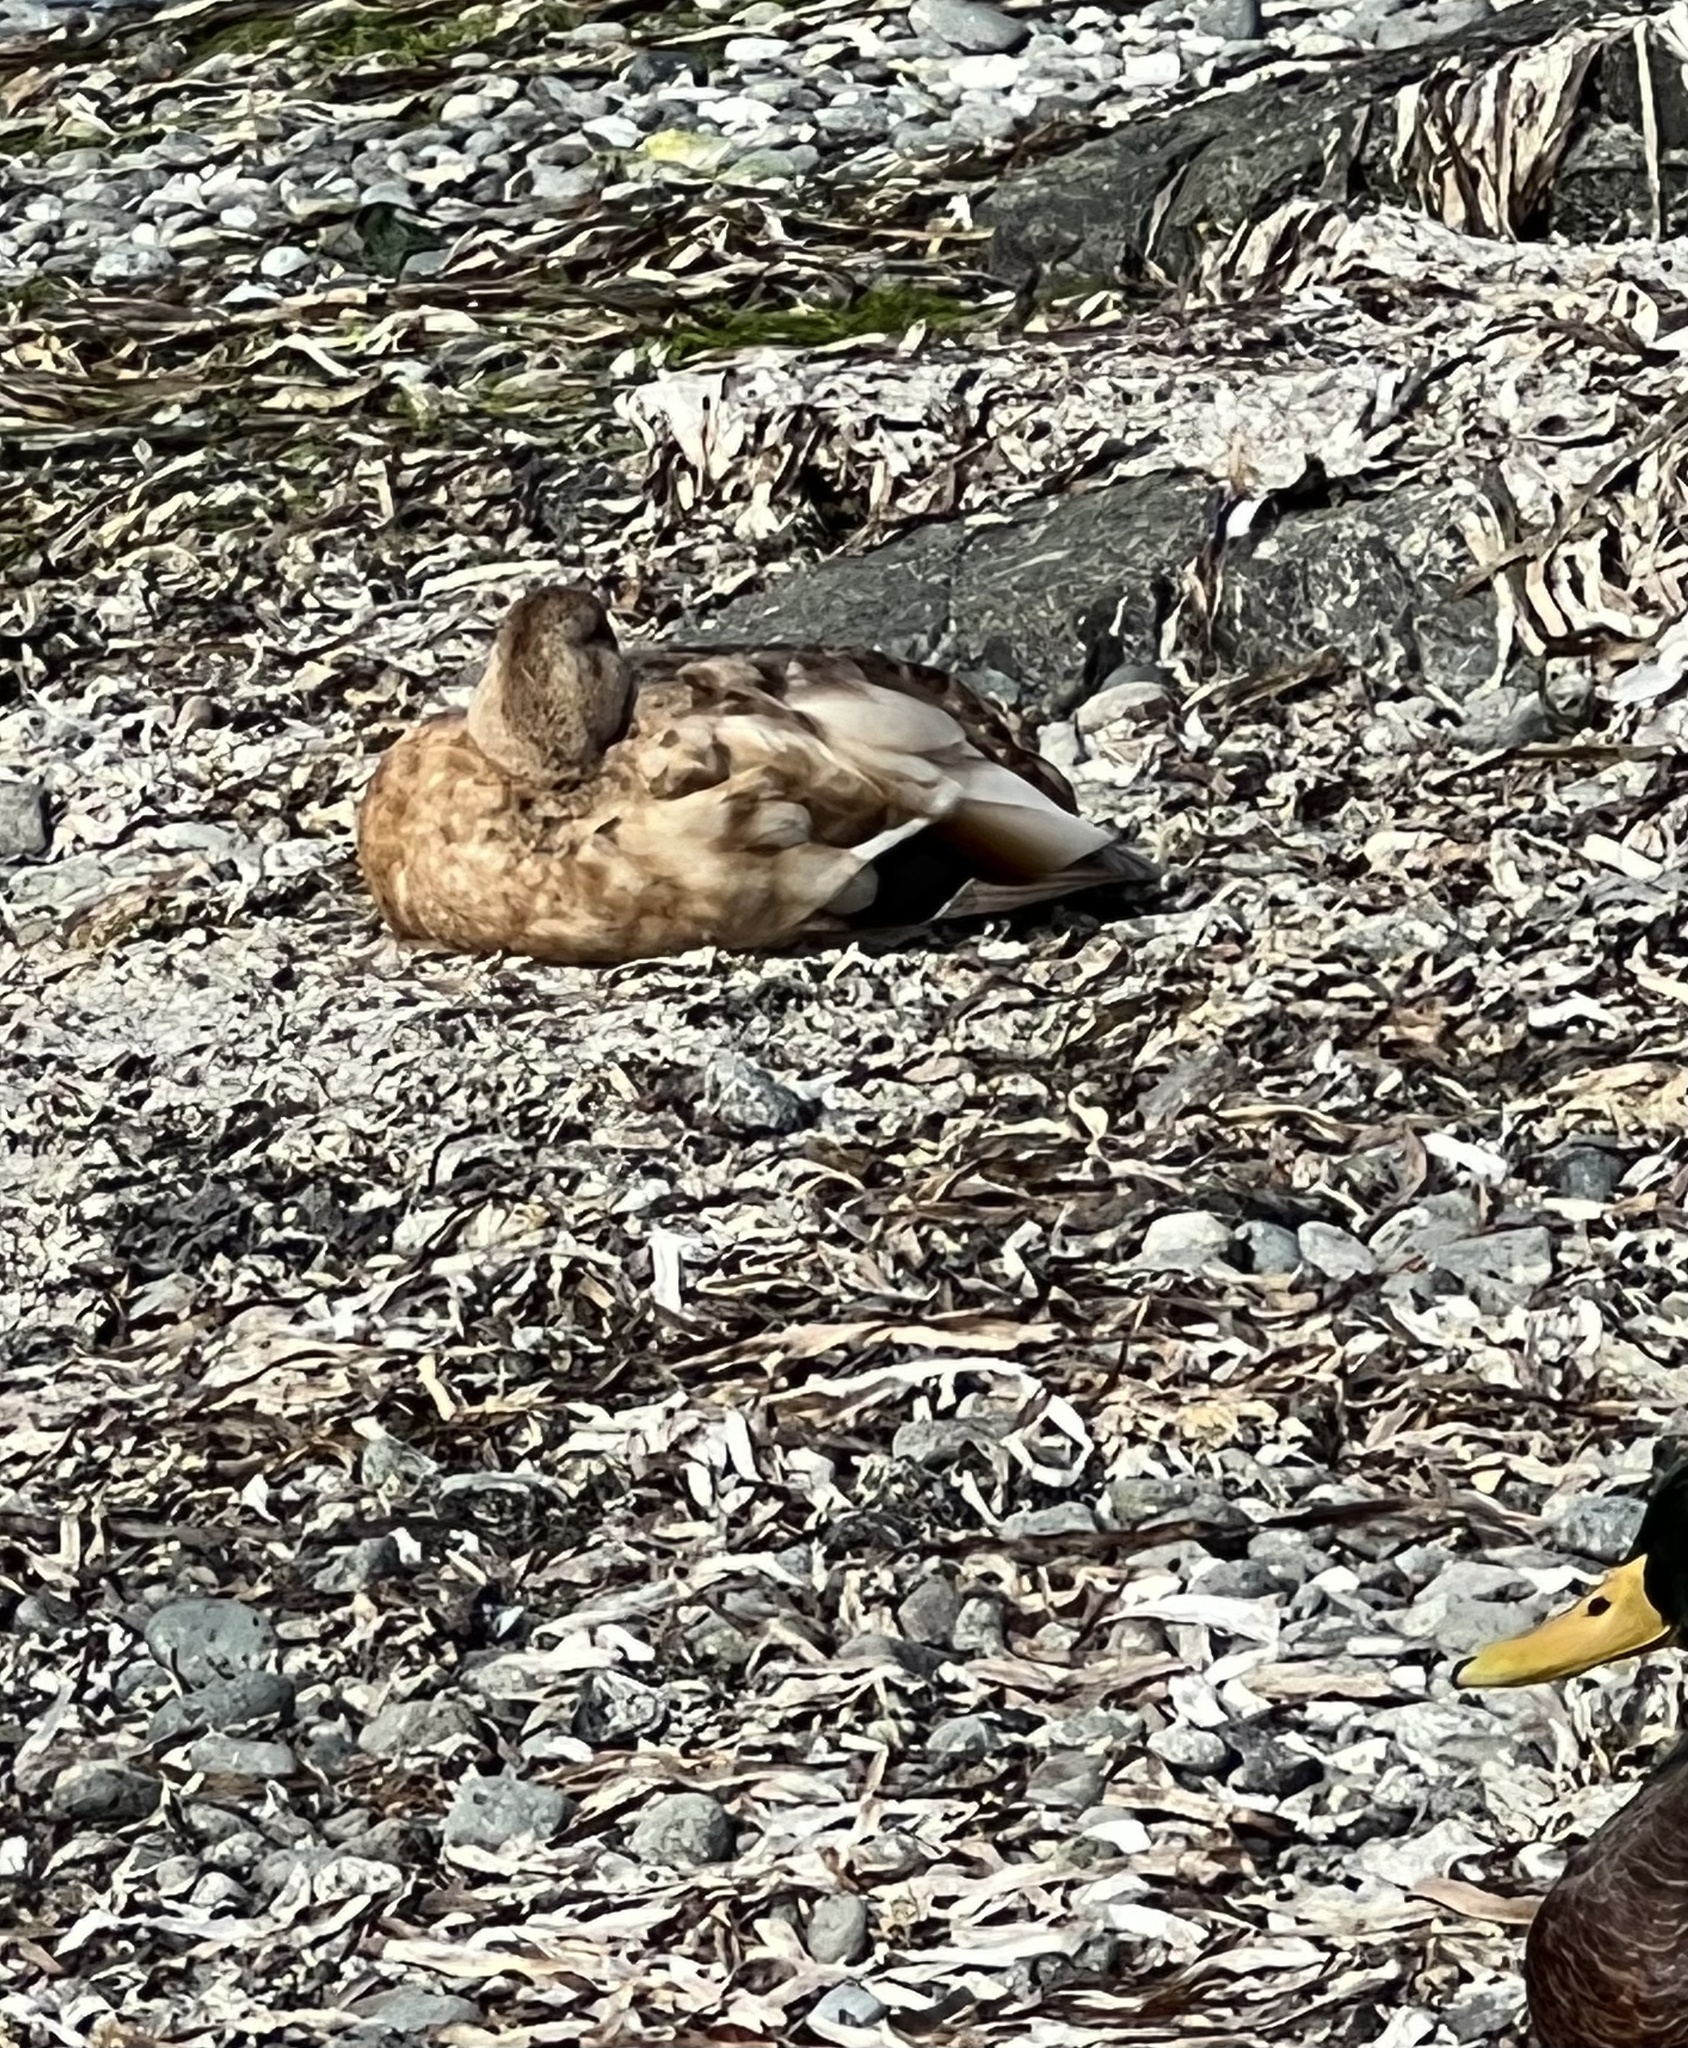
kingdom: Animalia
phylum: Chordata
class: Aves
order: Anseriformes
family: Anatidae
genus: Anas
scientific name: Anas platyrhynchos
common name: Mallard
